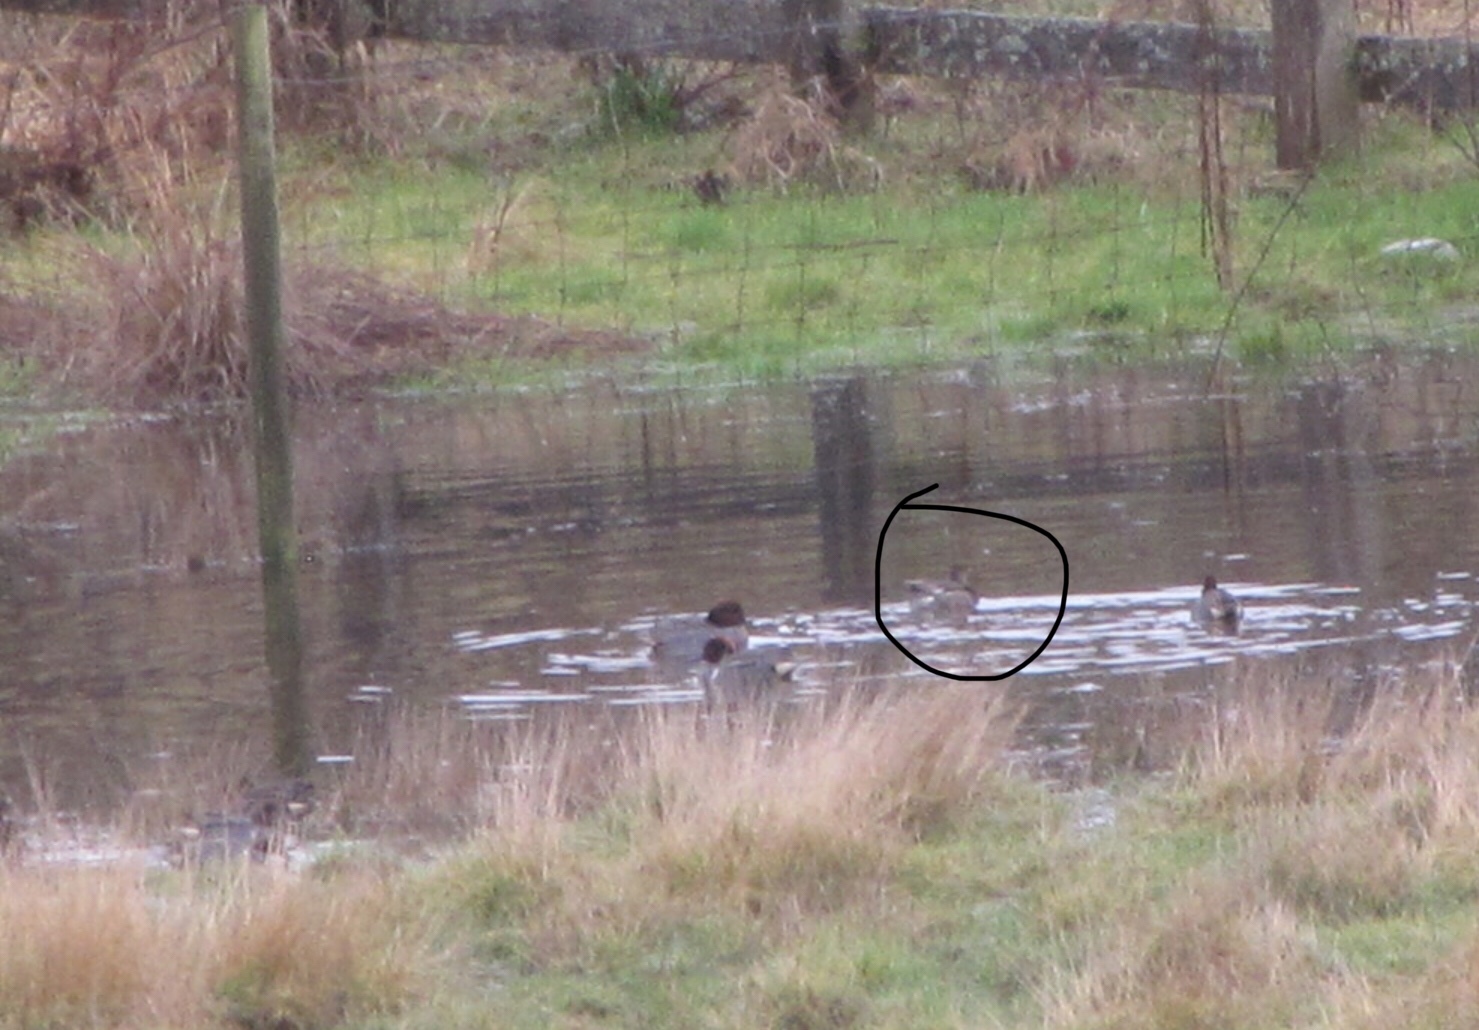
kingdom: Animalia
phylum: Chordata
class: Aves
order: Anseriformes
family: Anatidae
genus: Mareca
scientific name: Mareca strepera
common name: Gadwall
